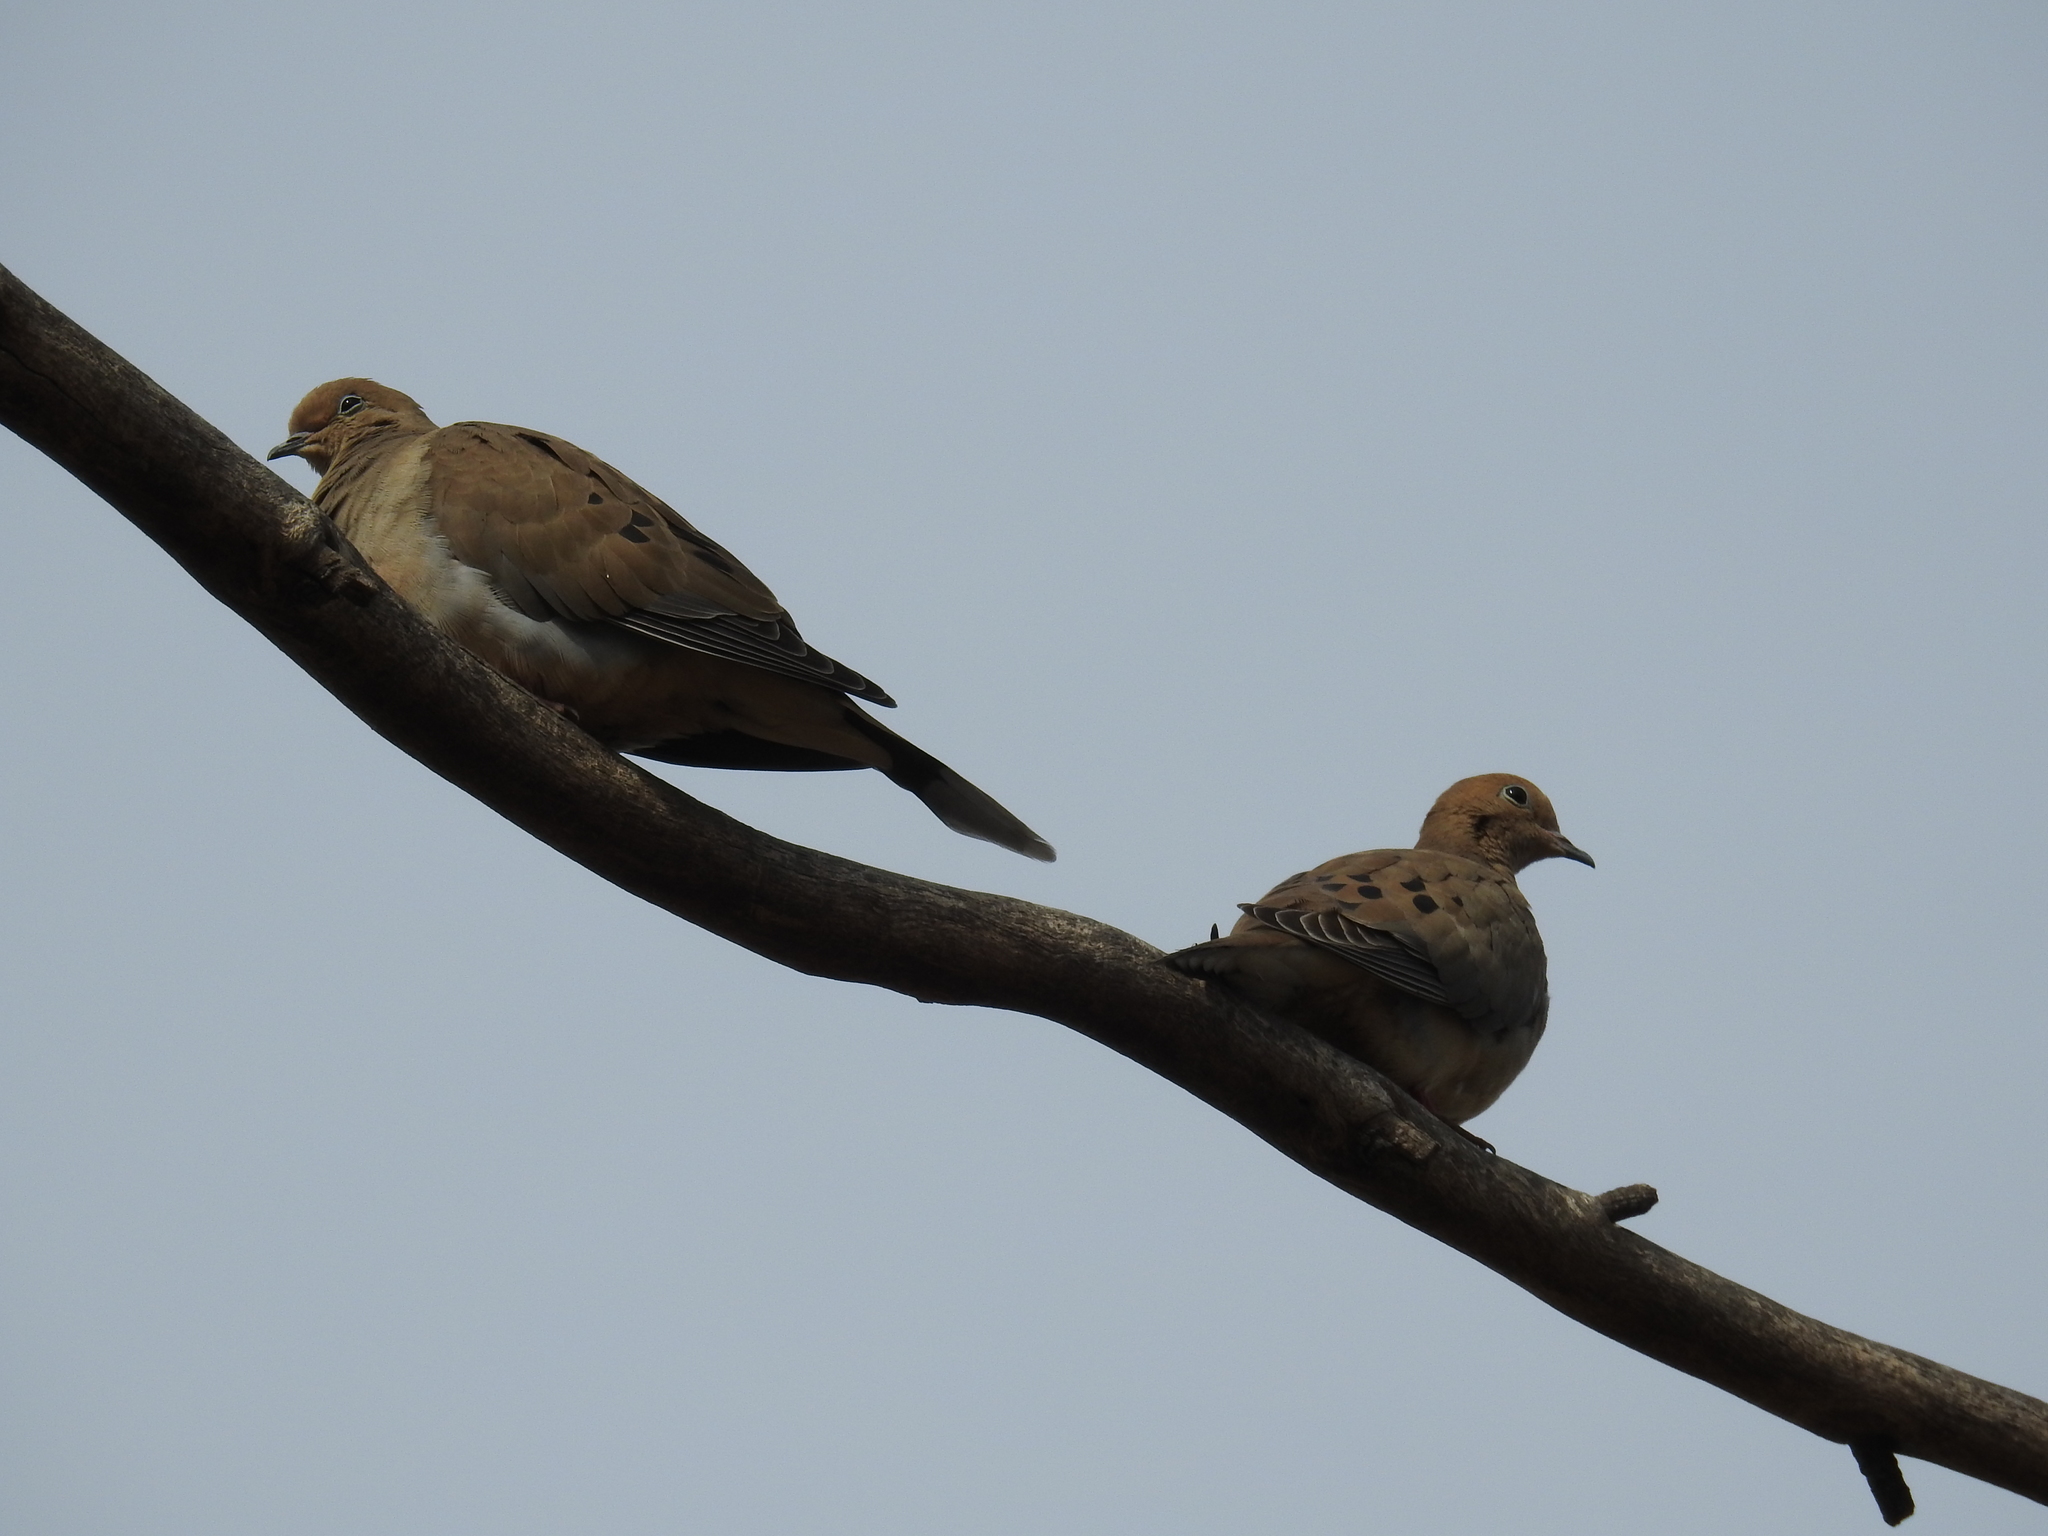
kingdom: Animalia
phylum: Chordata
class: Aves
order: Columbiformes
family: Columbidae
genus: Zenaida
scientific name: Zenaida macroura
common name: Mourning dove
